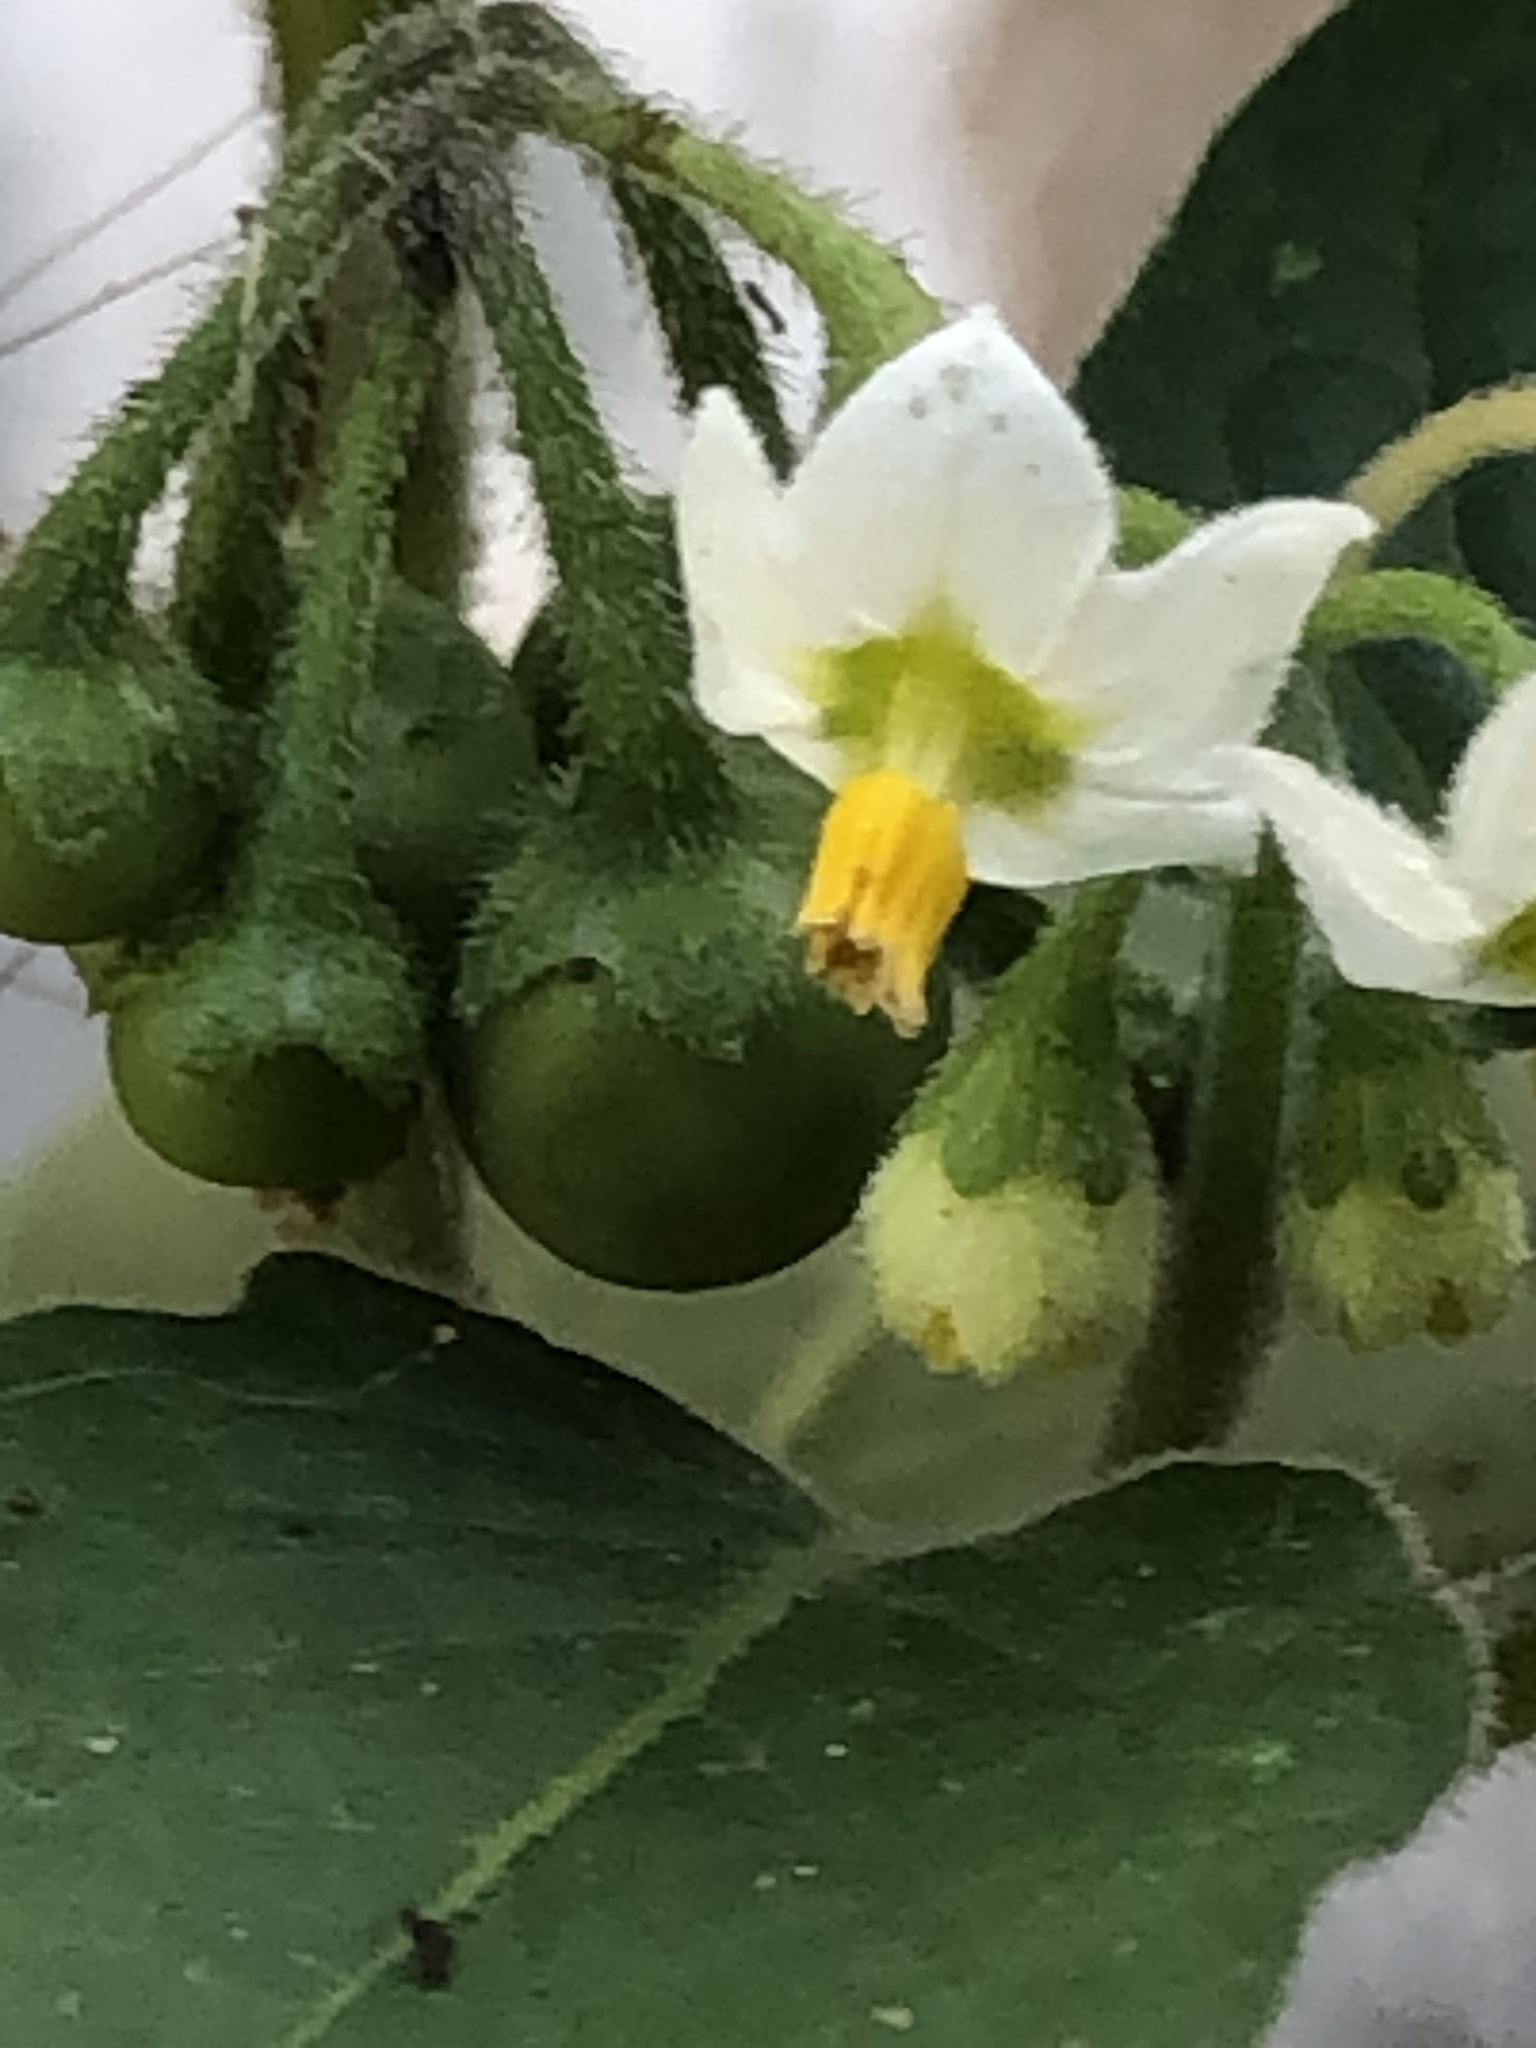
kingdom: Plantae
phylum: Tracheophyta
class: Magnoliopsida
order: Solanales
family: Solanaceae
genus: Solanum
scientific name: Solanum nigrum
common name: Black nightshade
